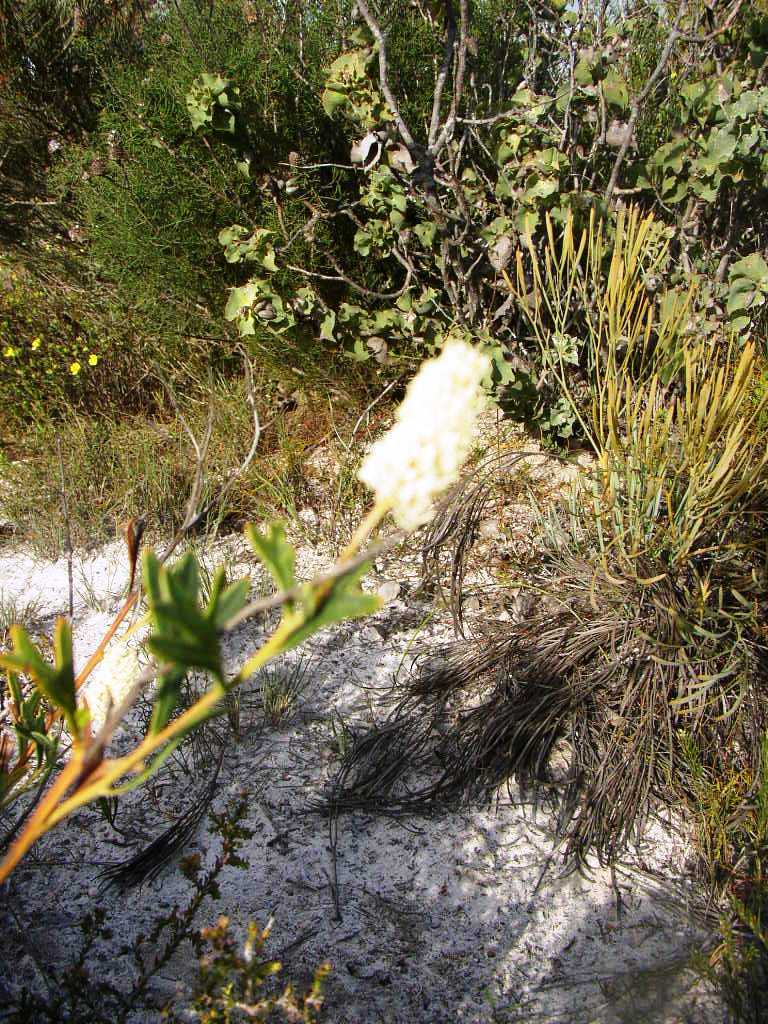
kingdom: Plantae
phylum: Tracheophyta
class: Magnoliopsida
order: Proteales
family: Proteaceae
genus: Grevillea
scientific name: Grevillea synaphea
